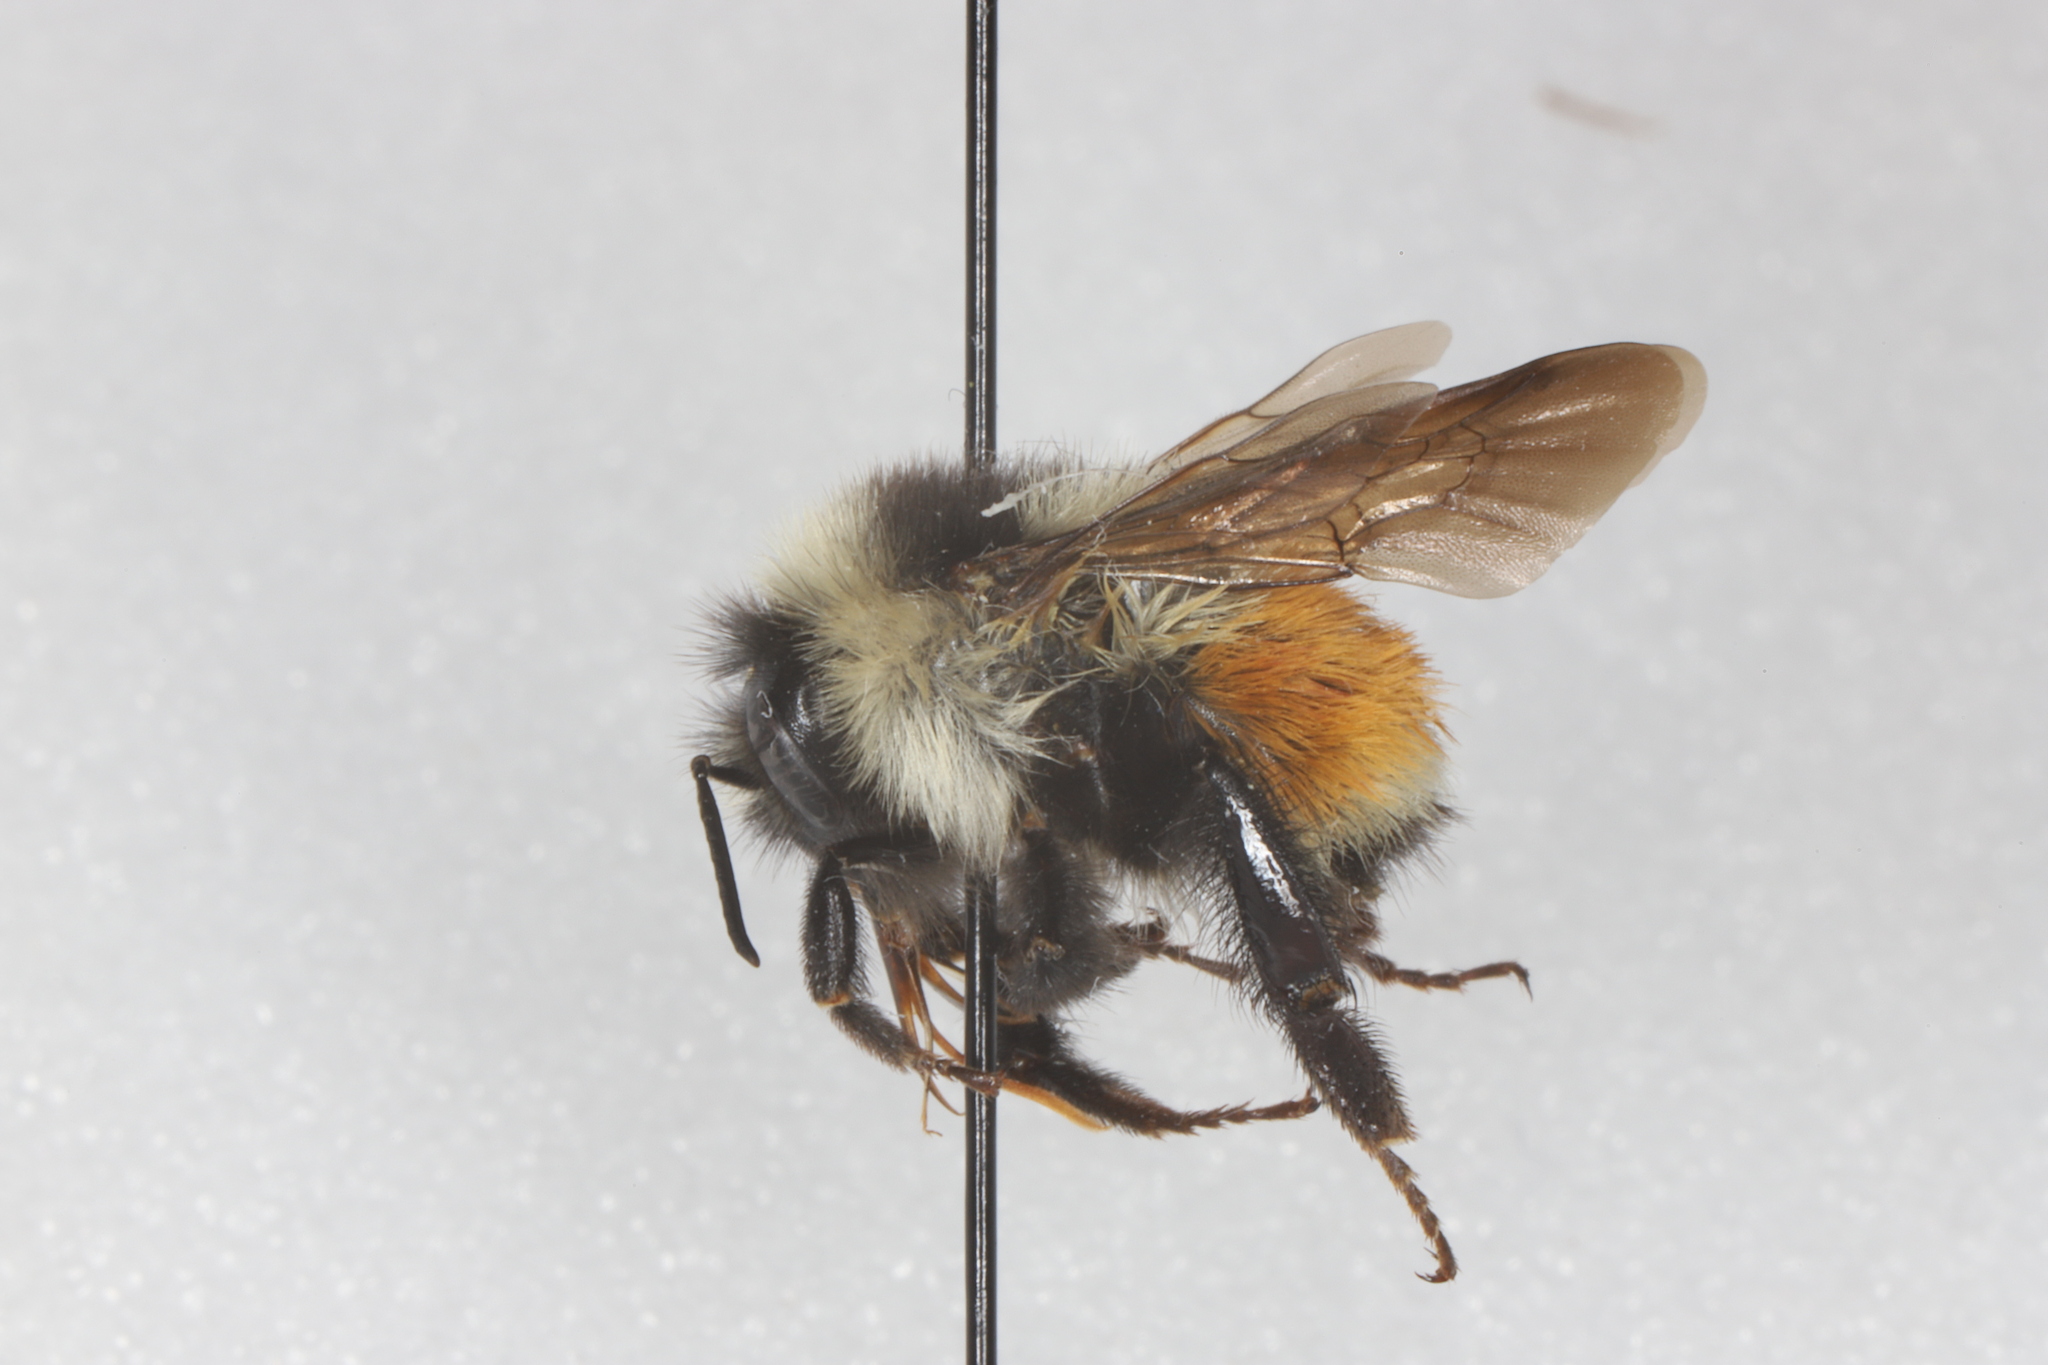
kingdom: Animalia
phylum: Arthropoda
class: Insecta
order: Hymenoptera
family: Apidae
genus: Bombus
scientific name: Bombus ternarius
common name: Tri-colored bumble bee
